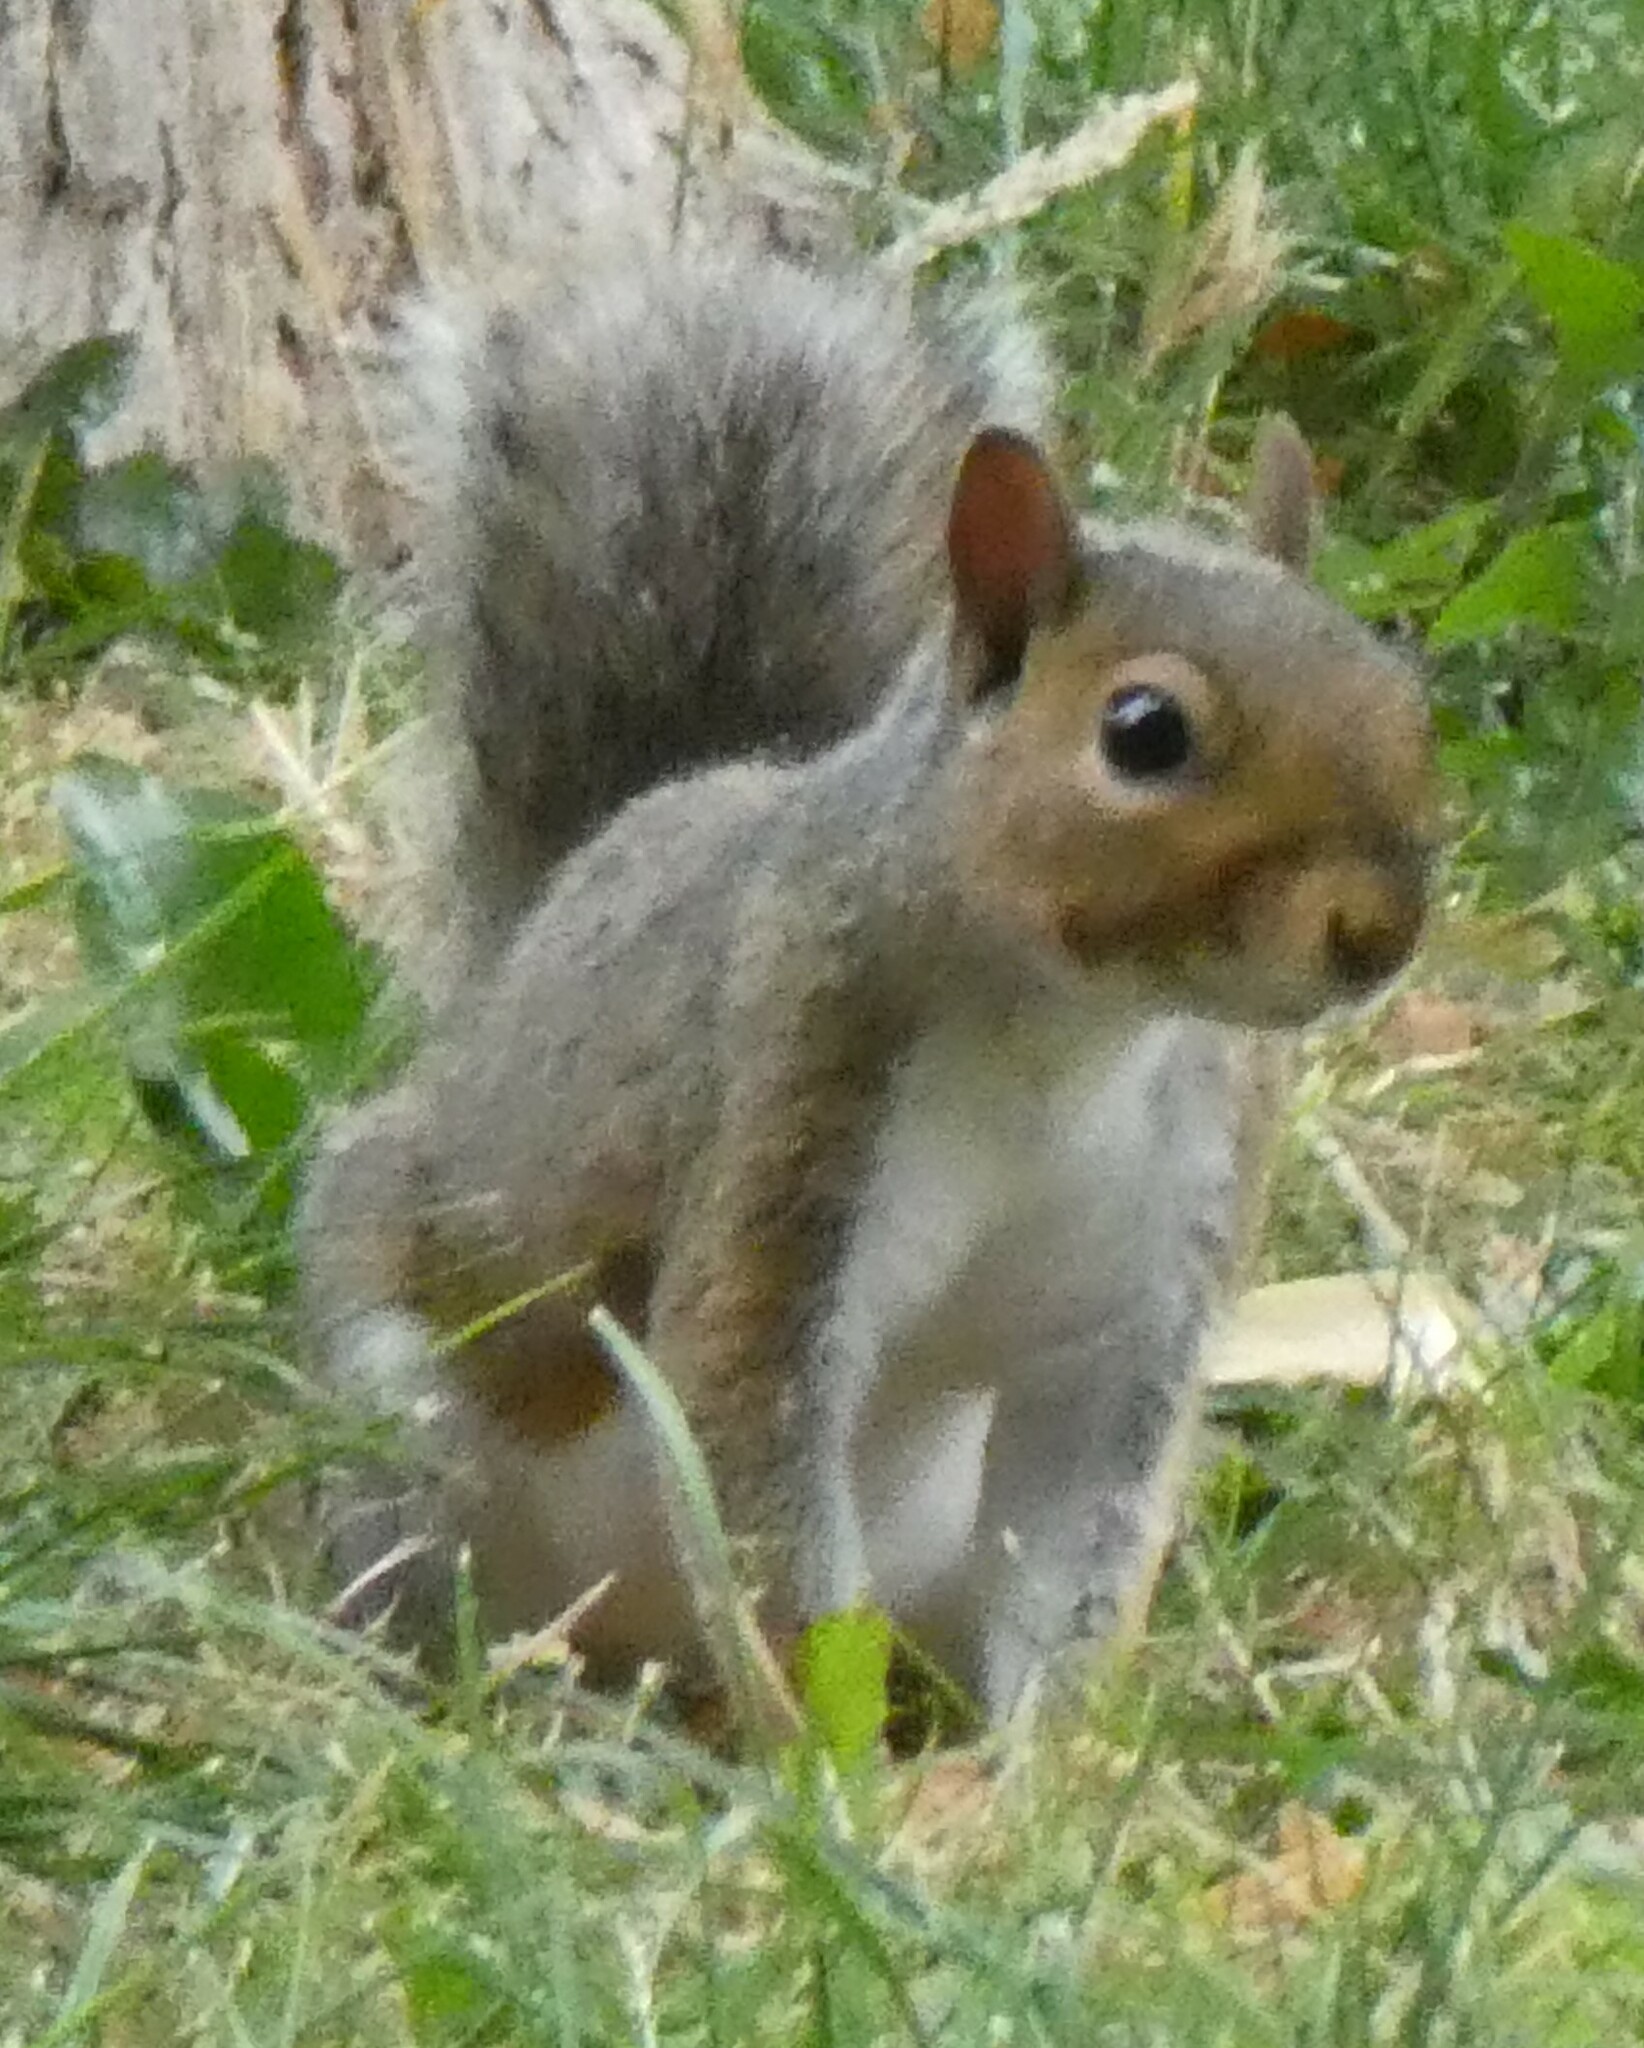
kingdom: Animalia
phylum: Chordata
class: Mammalia
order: Rodentia
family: Sciuridae
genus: Sciurus
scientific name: Sciurus carolinensis
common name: Eastern gray squirrel
